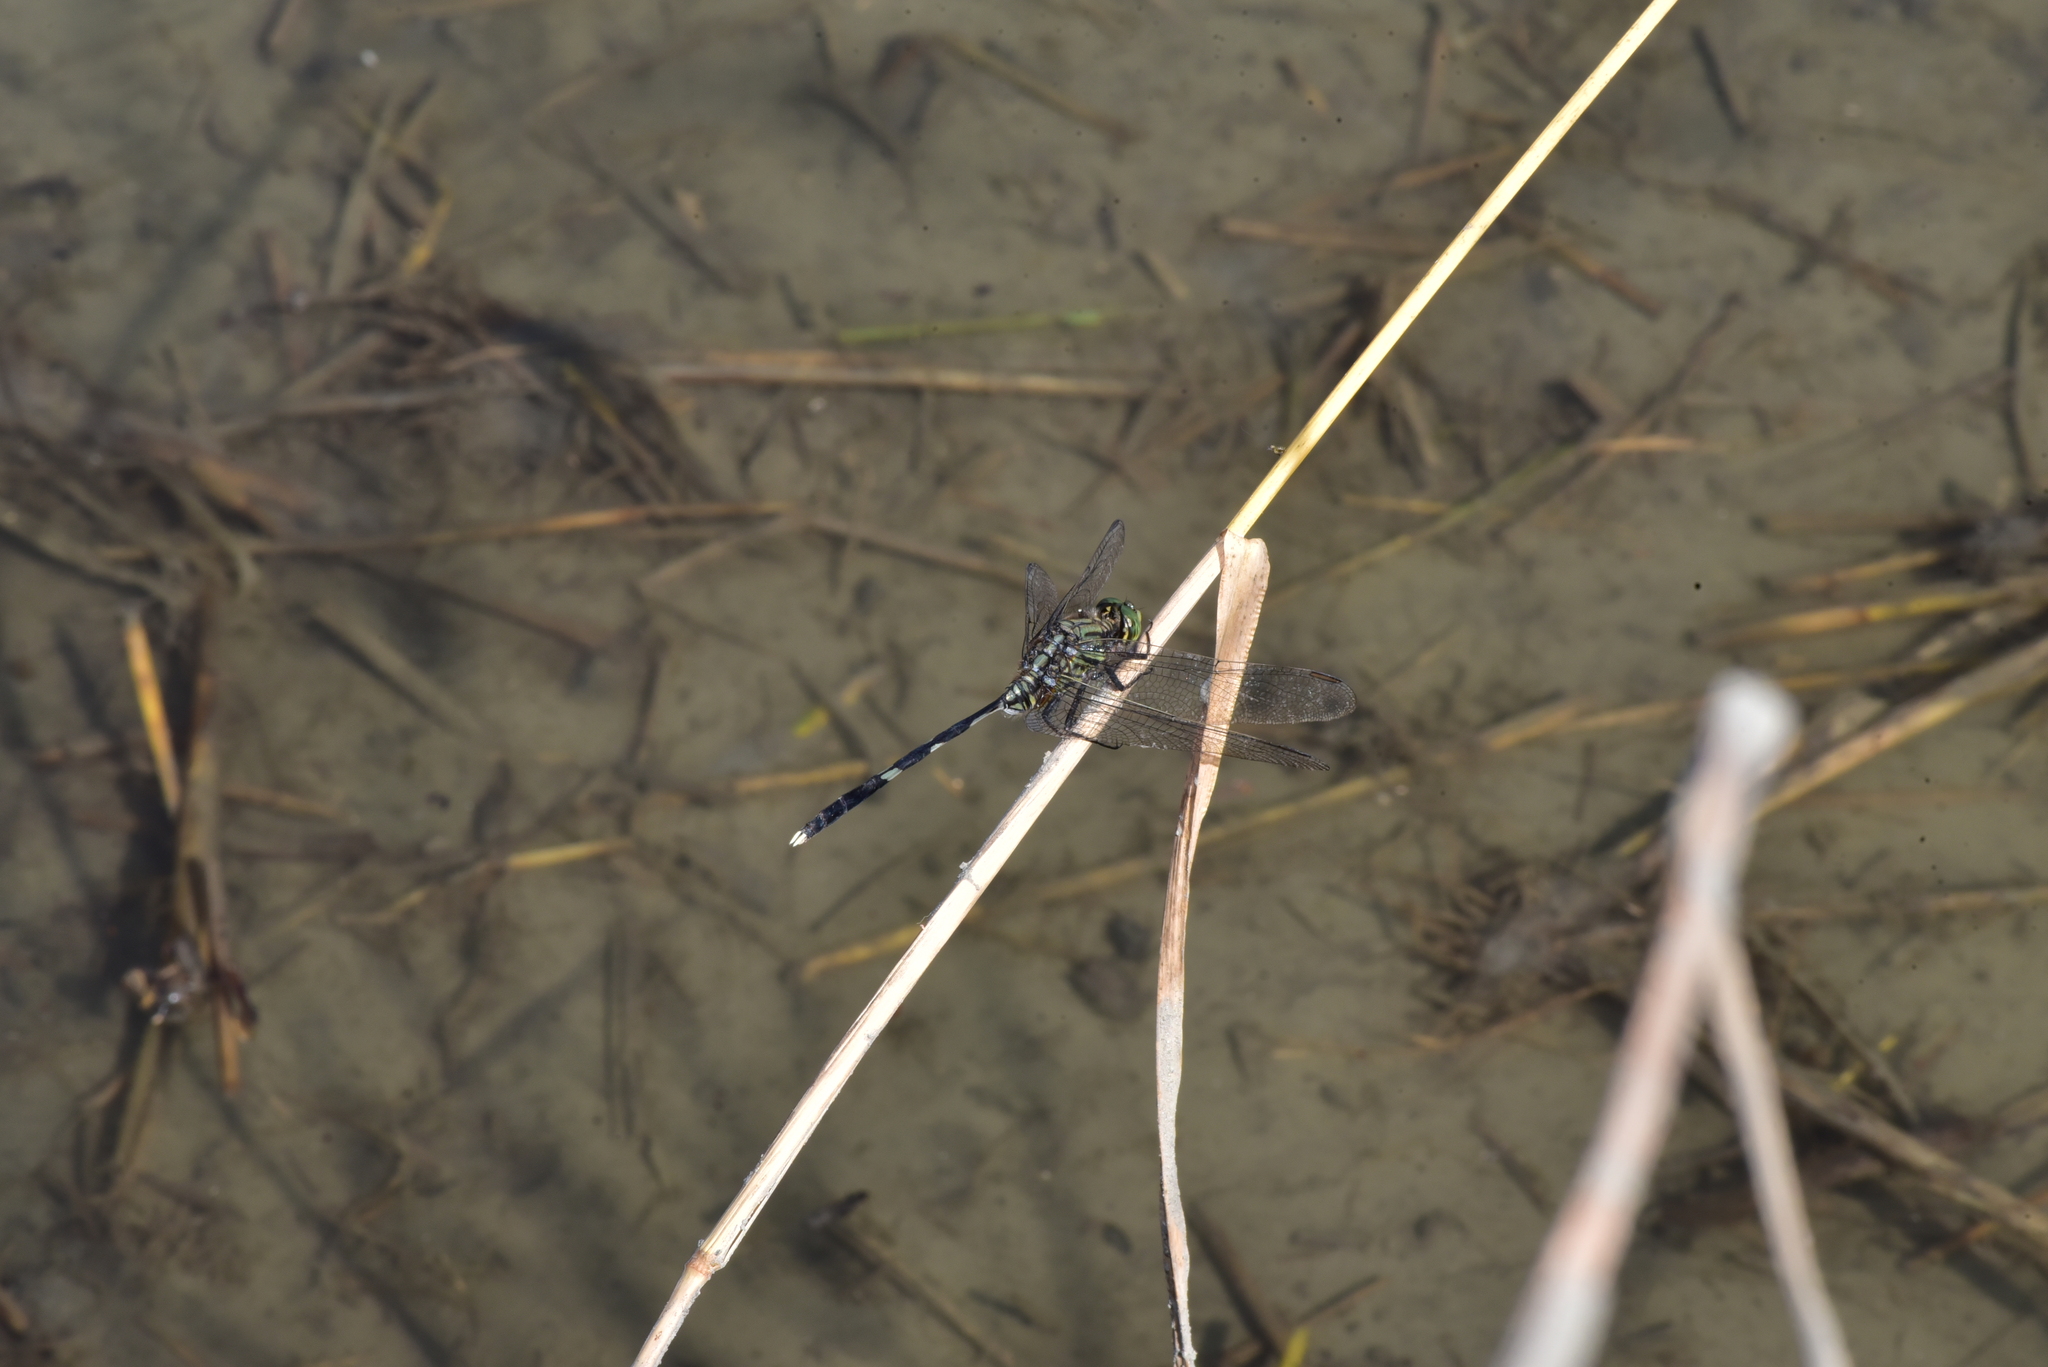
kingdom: Animalia
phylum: Arthropoda
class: Insecta
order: Odonata
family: Libellulidae
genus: Orthetrum
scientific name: Orthetrum sabina
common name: Slender skimmer
